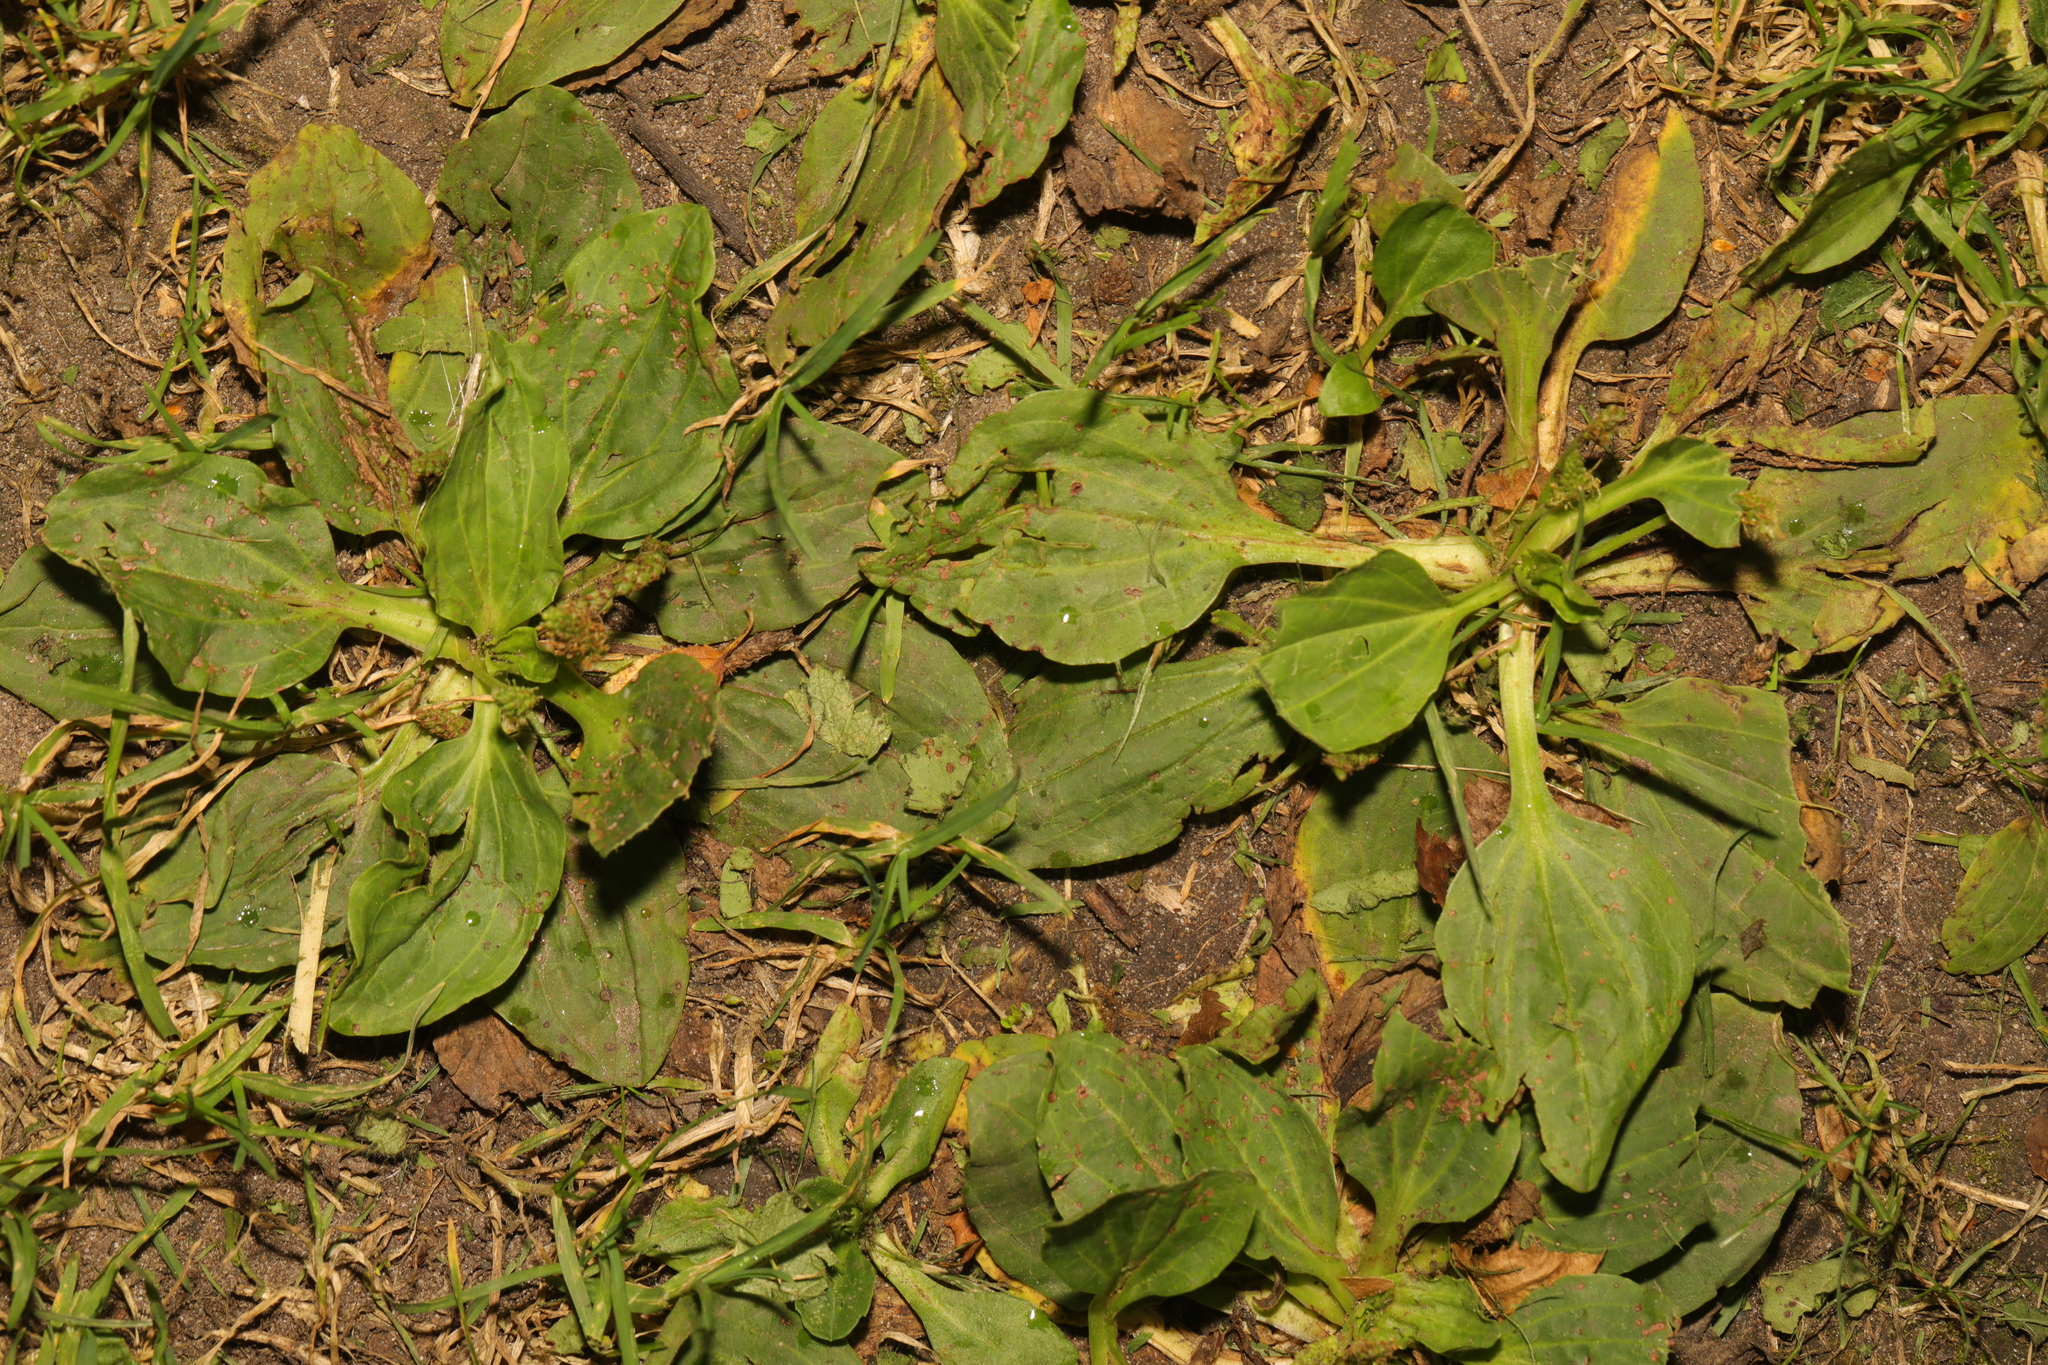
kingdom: Plantae
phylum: Tracheophyta
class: Magnoliopsida
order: Lamiales
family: Plantaginaceae
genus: Plantago
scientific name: Plantago major
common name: Common plantain
